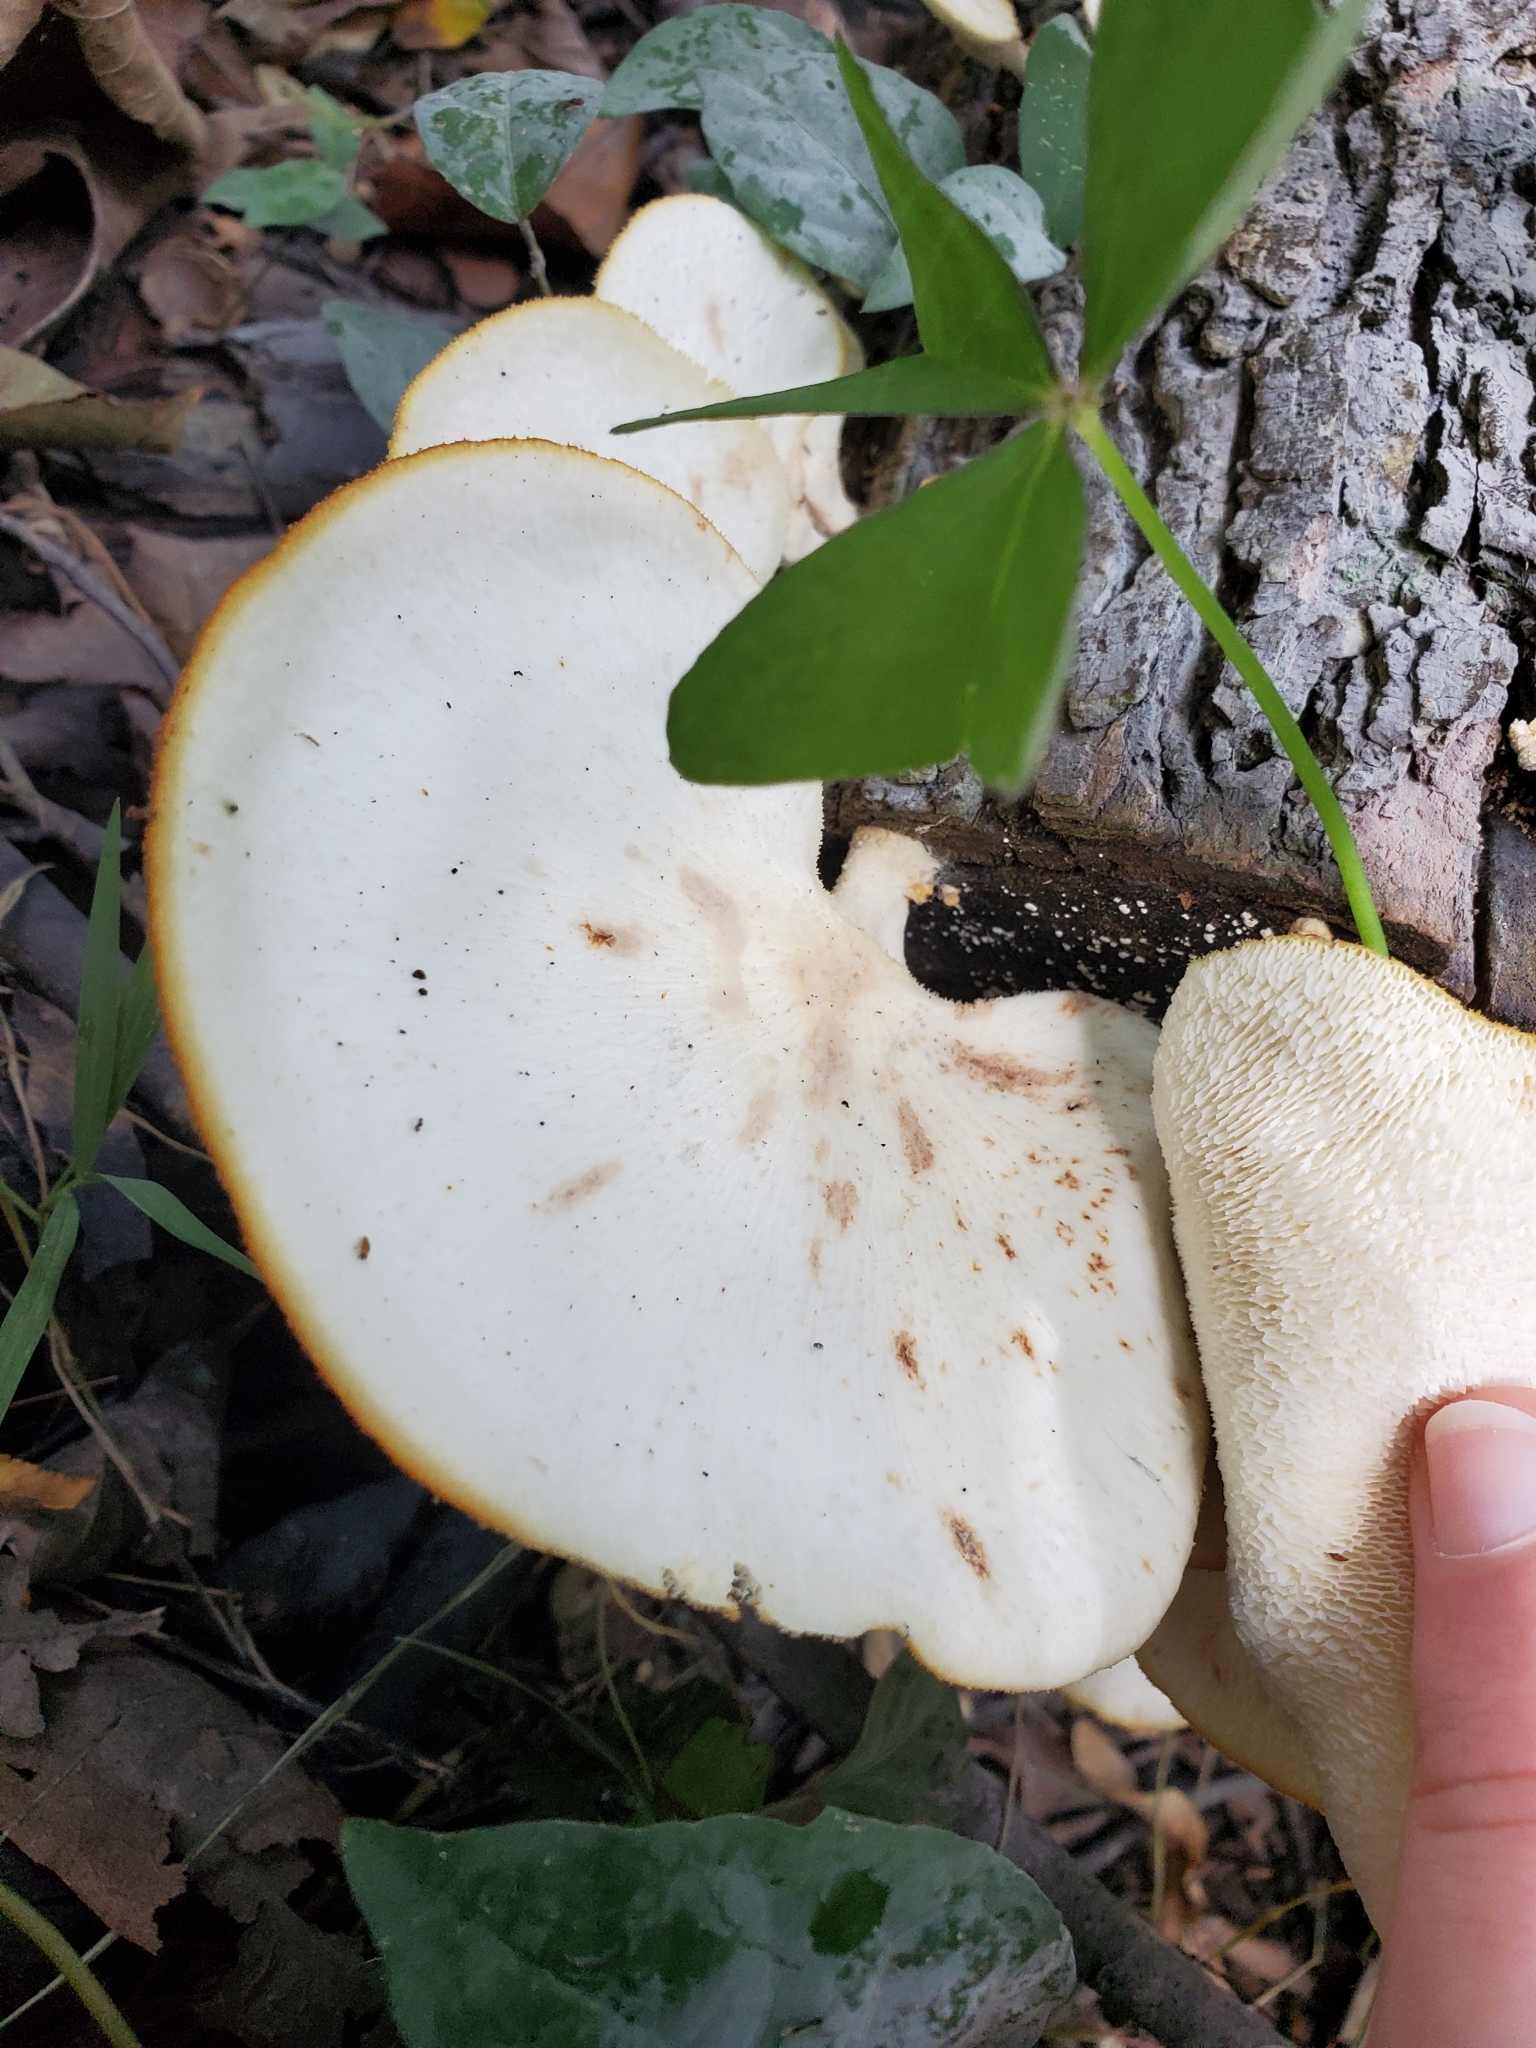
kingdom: Fungi
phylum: Basidiomycota
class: Agaricomycetes
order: Polyporales
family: Polyporaceae
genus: Favolus
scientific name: Favolus tenuiculus
